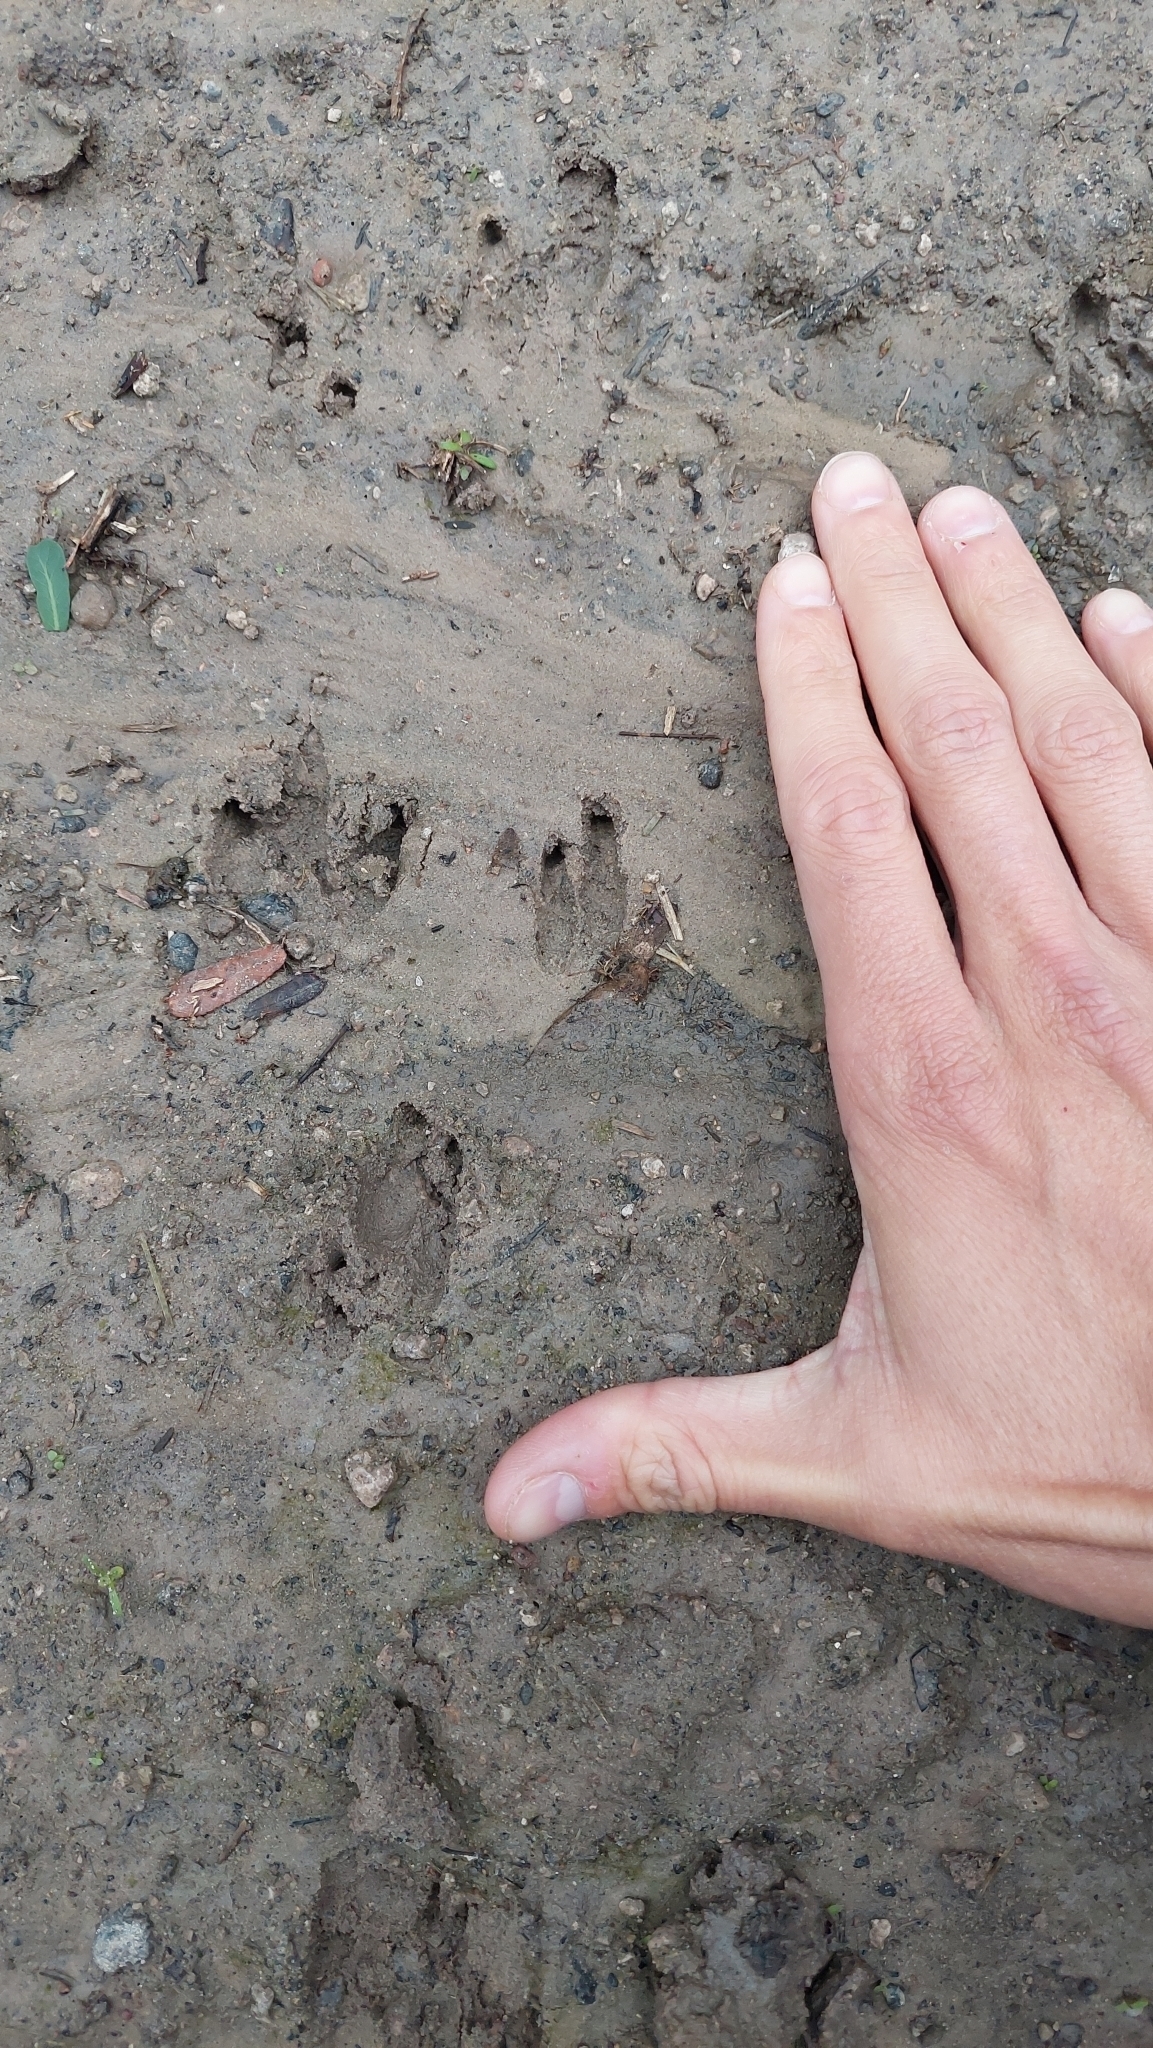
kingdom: Animalia
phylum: Chordata
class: Mammalia
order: Cingulata
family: Dasypodidae
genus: Dasypus
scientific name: Dasypus novemcinctus
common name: Nine-banded armadillo
